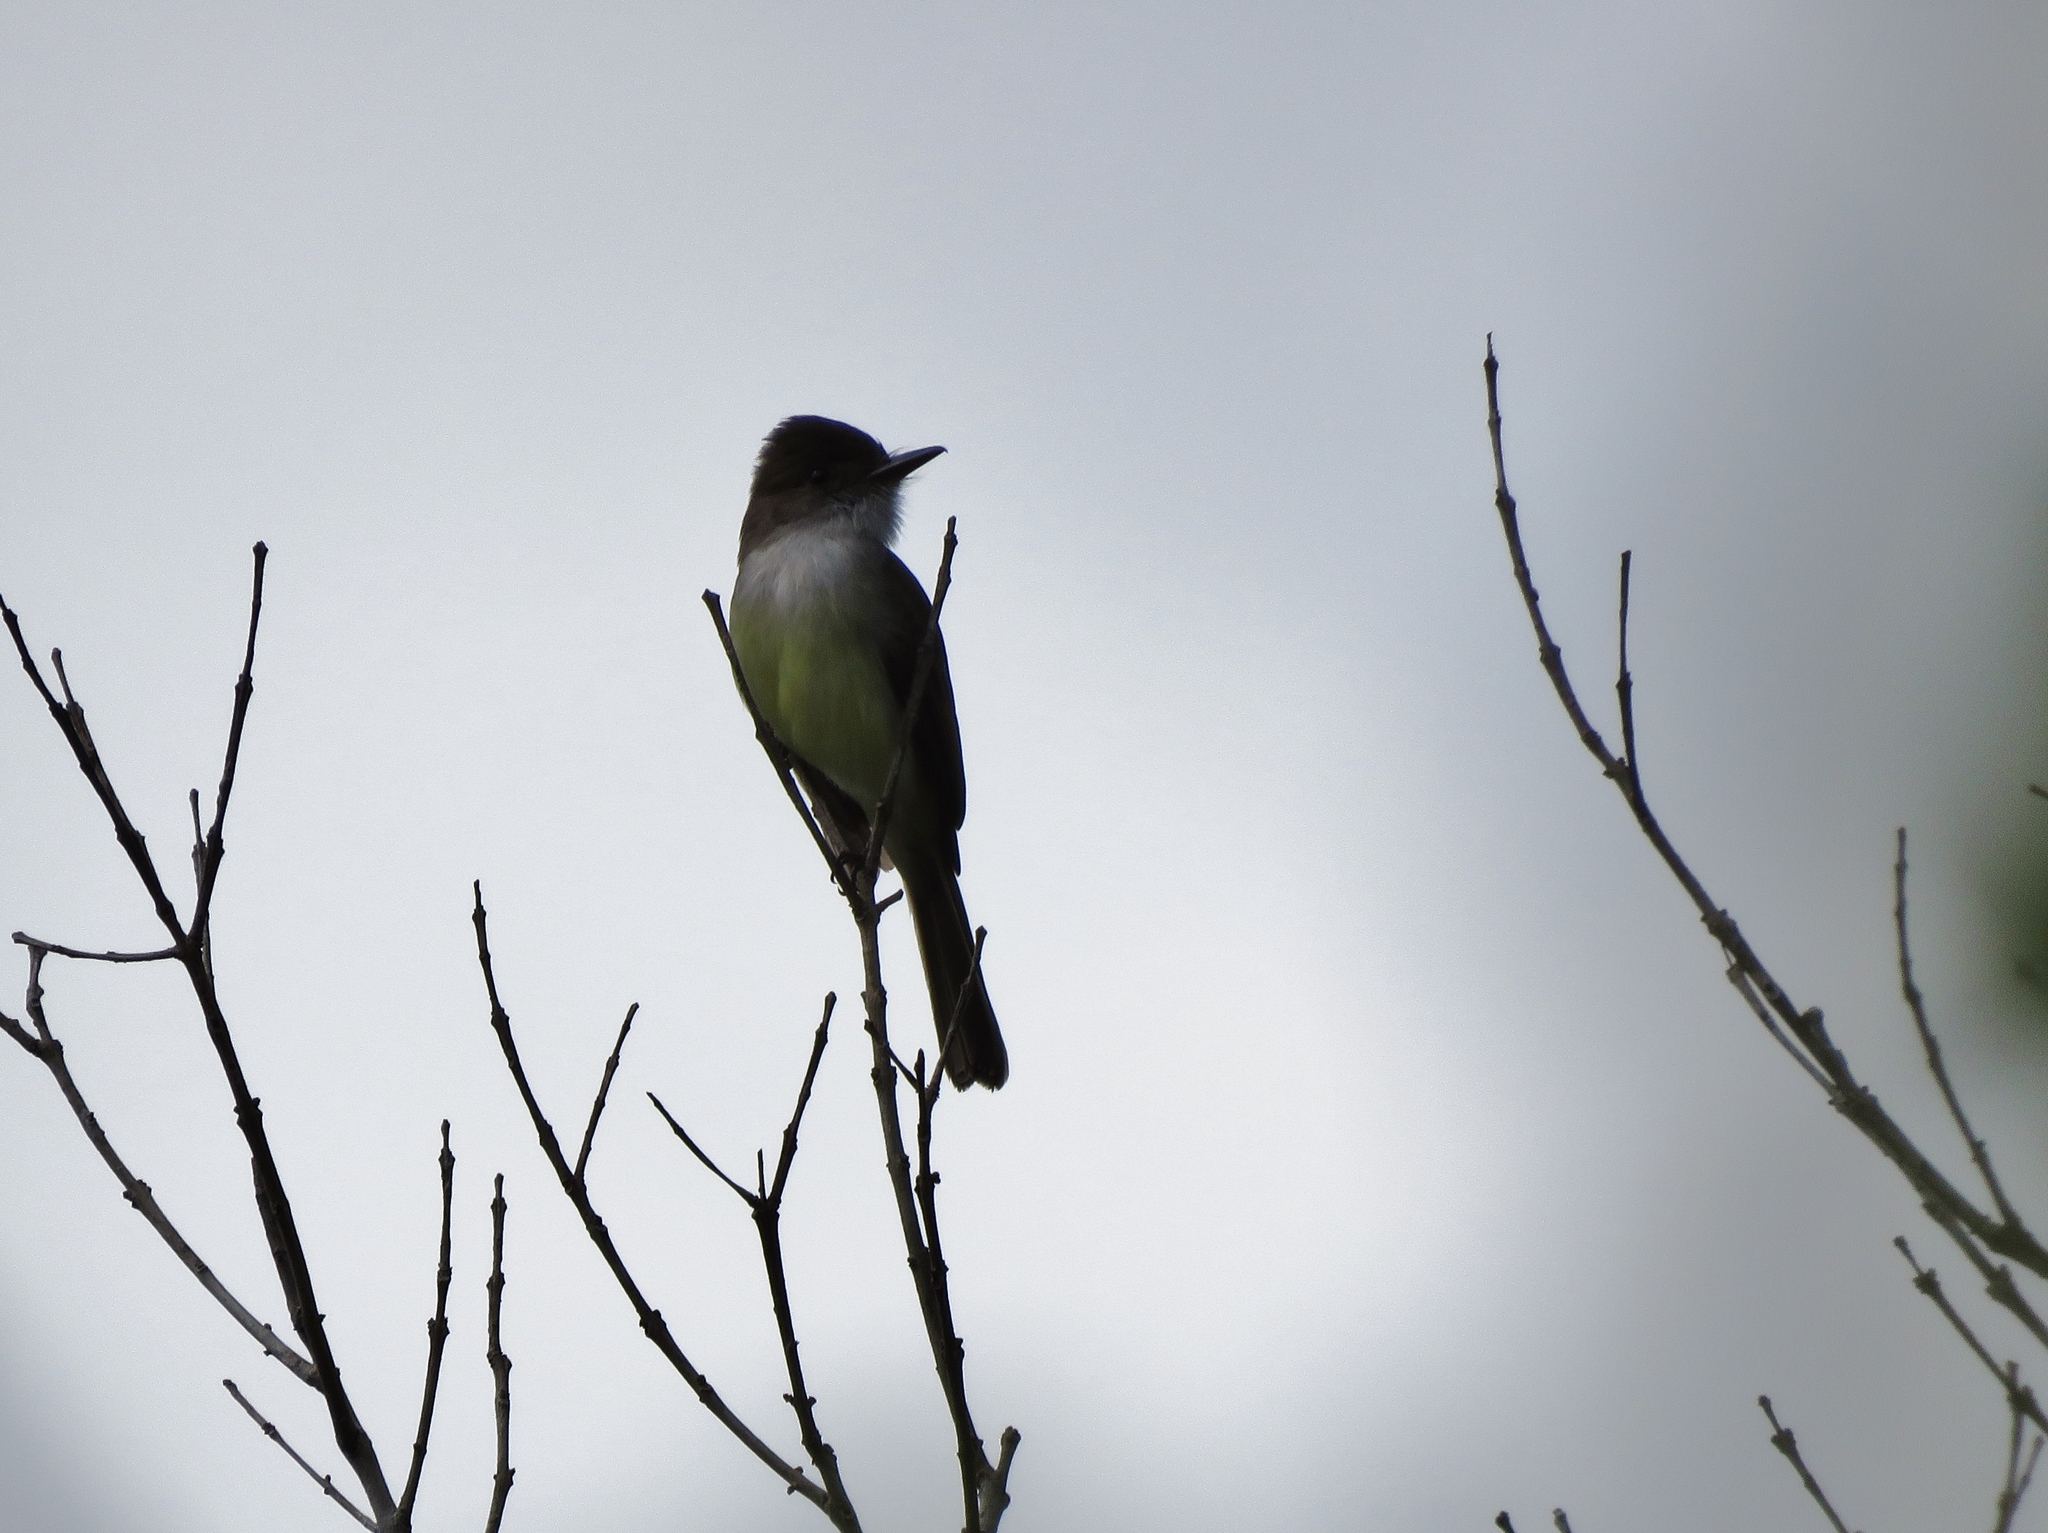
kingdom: Animalia
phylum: Chordata
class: Aves
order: Passeriformes
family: Tyrannidae
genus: Myiarchus
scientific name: Myiarchus tuberculifer
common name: Dusky-capped flycatcher
